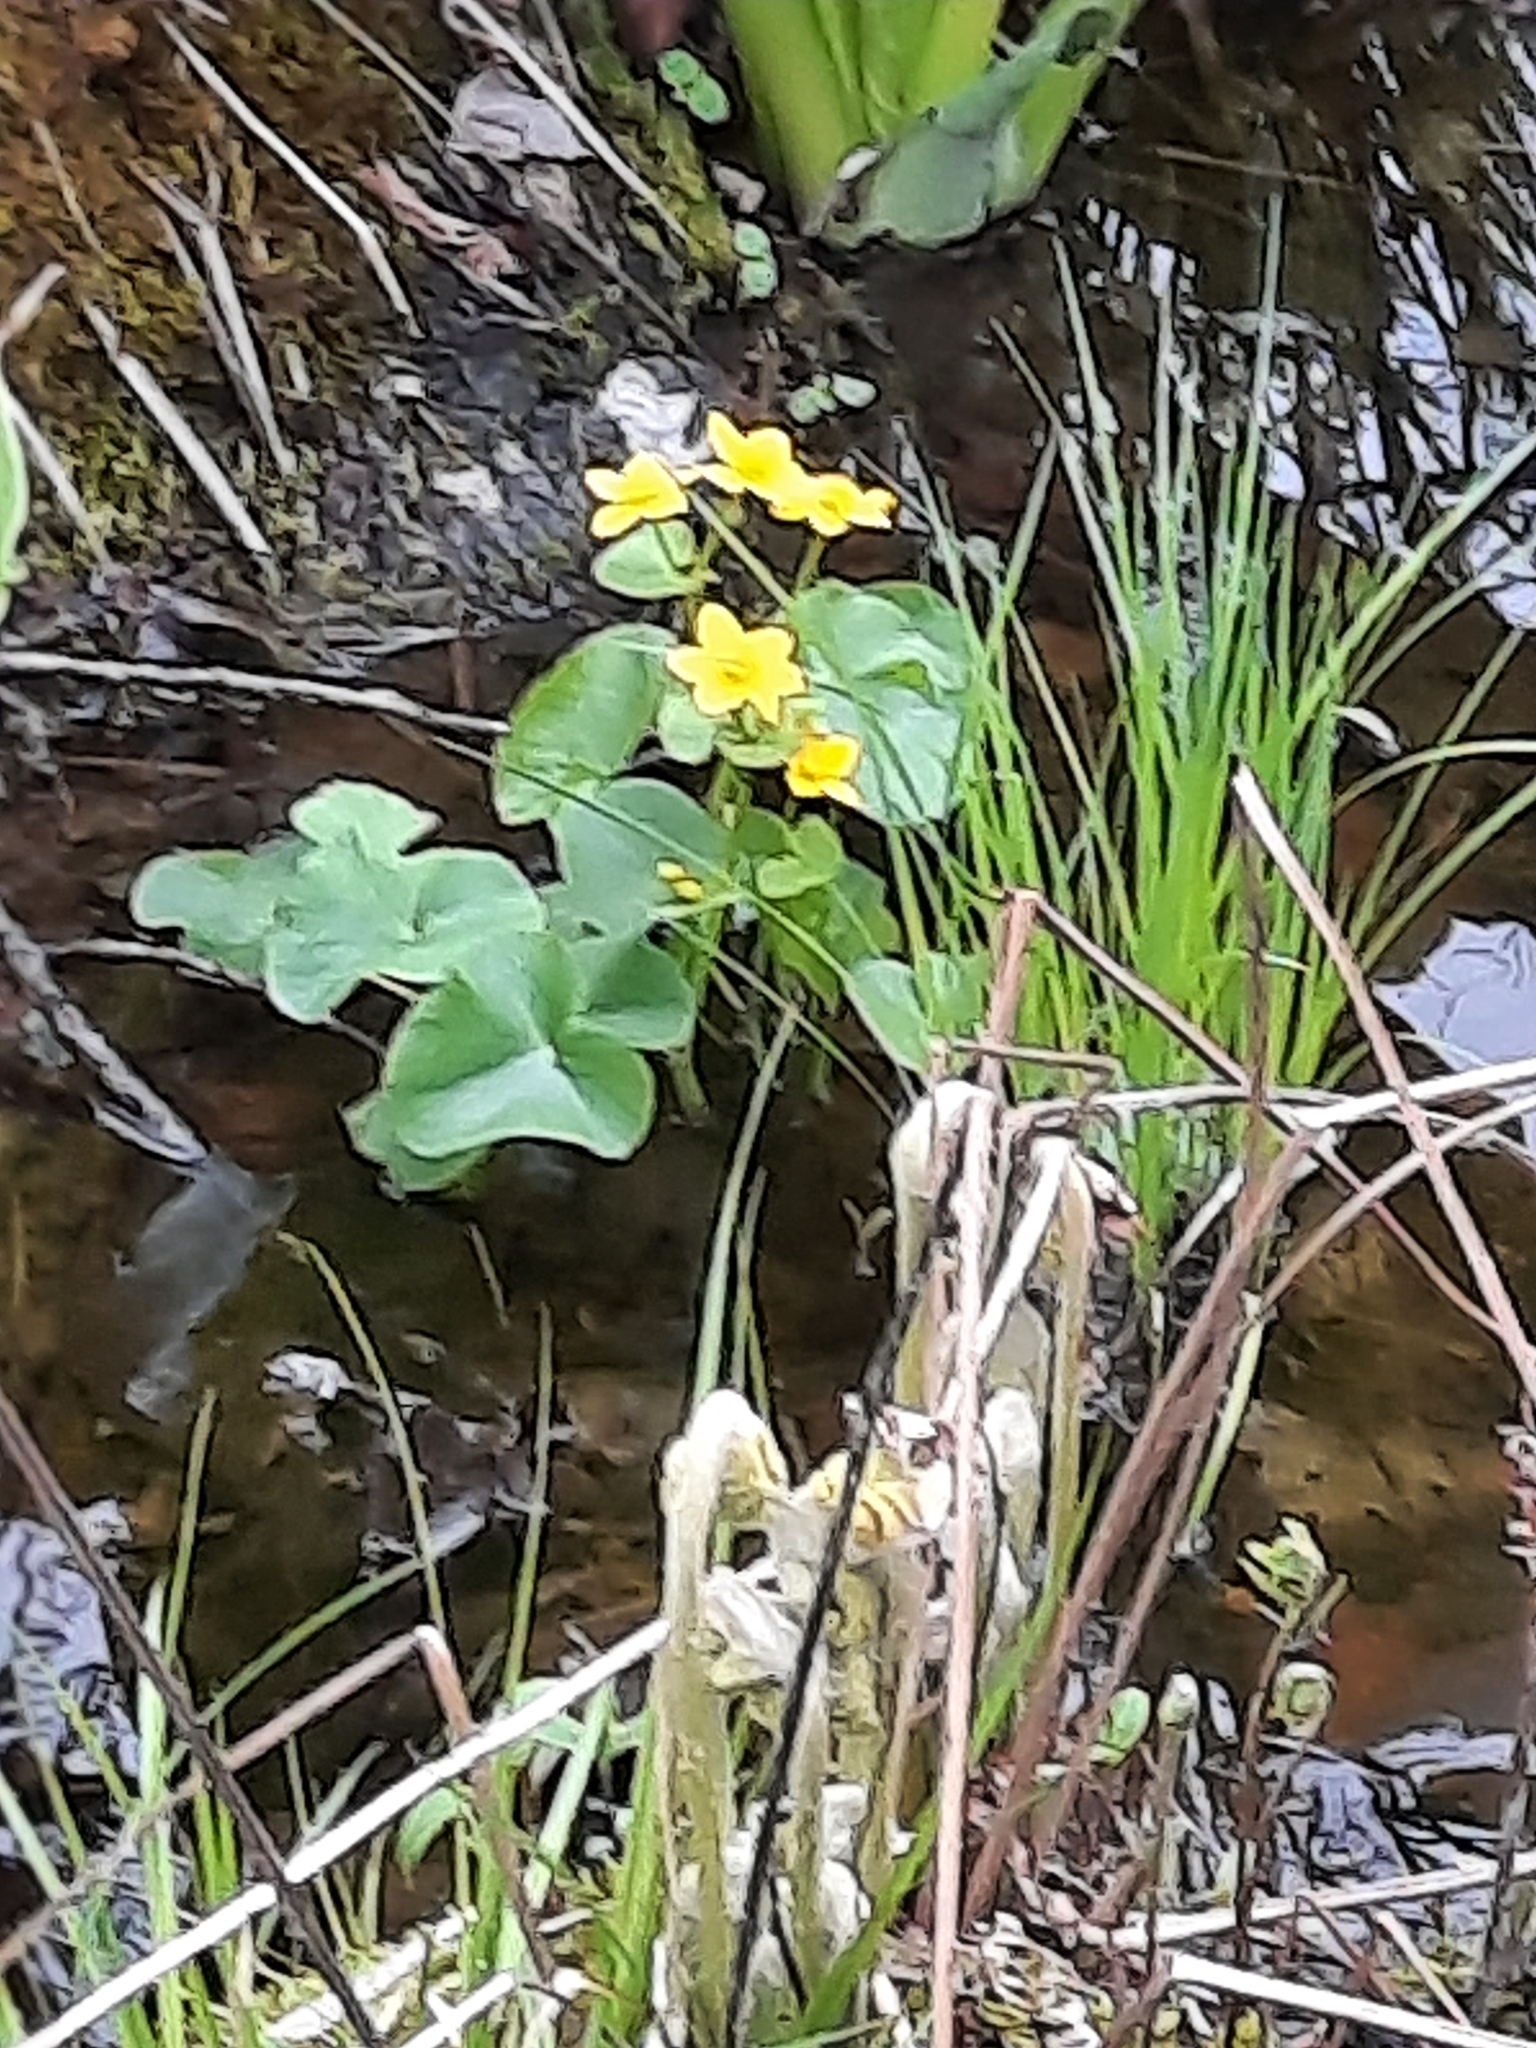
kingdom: Plantae
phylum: Tracheophyta
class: Magnoliopsida
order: Ranunculales
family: Ranunculaceae
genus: Caltha
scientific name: Caltha palustris
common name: Marsh marigold
